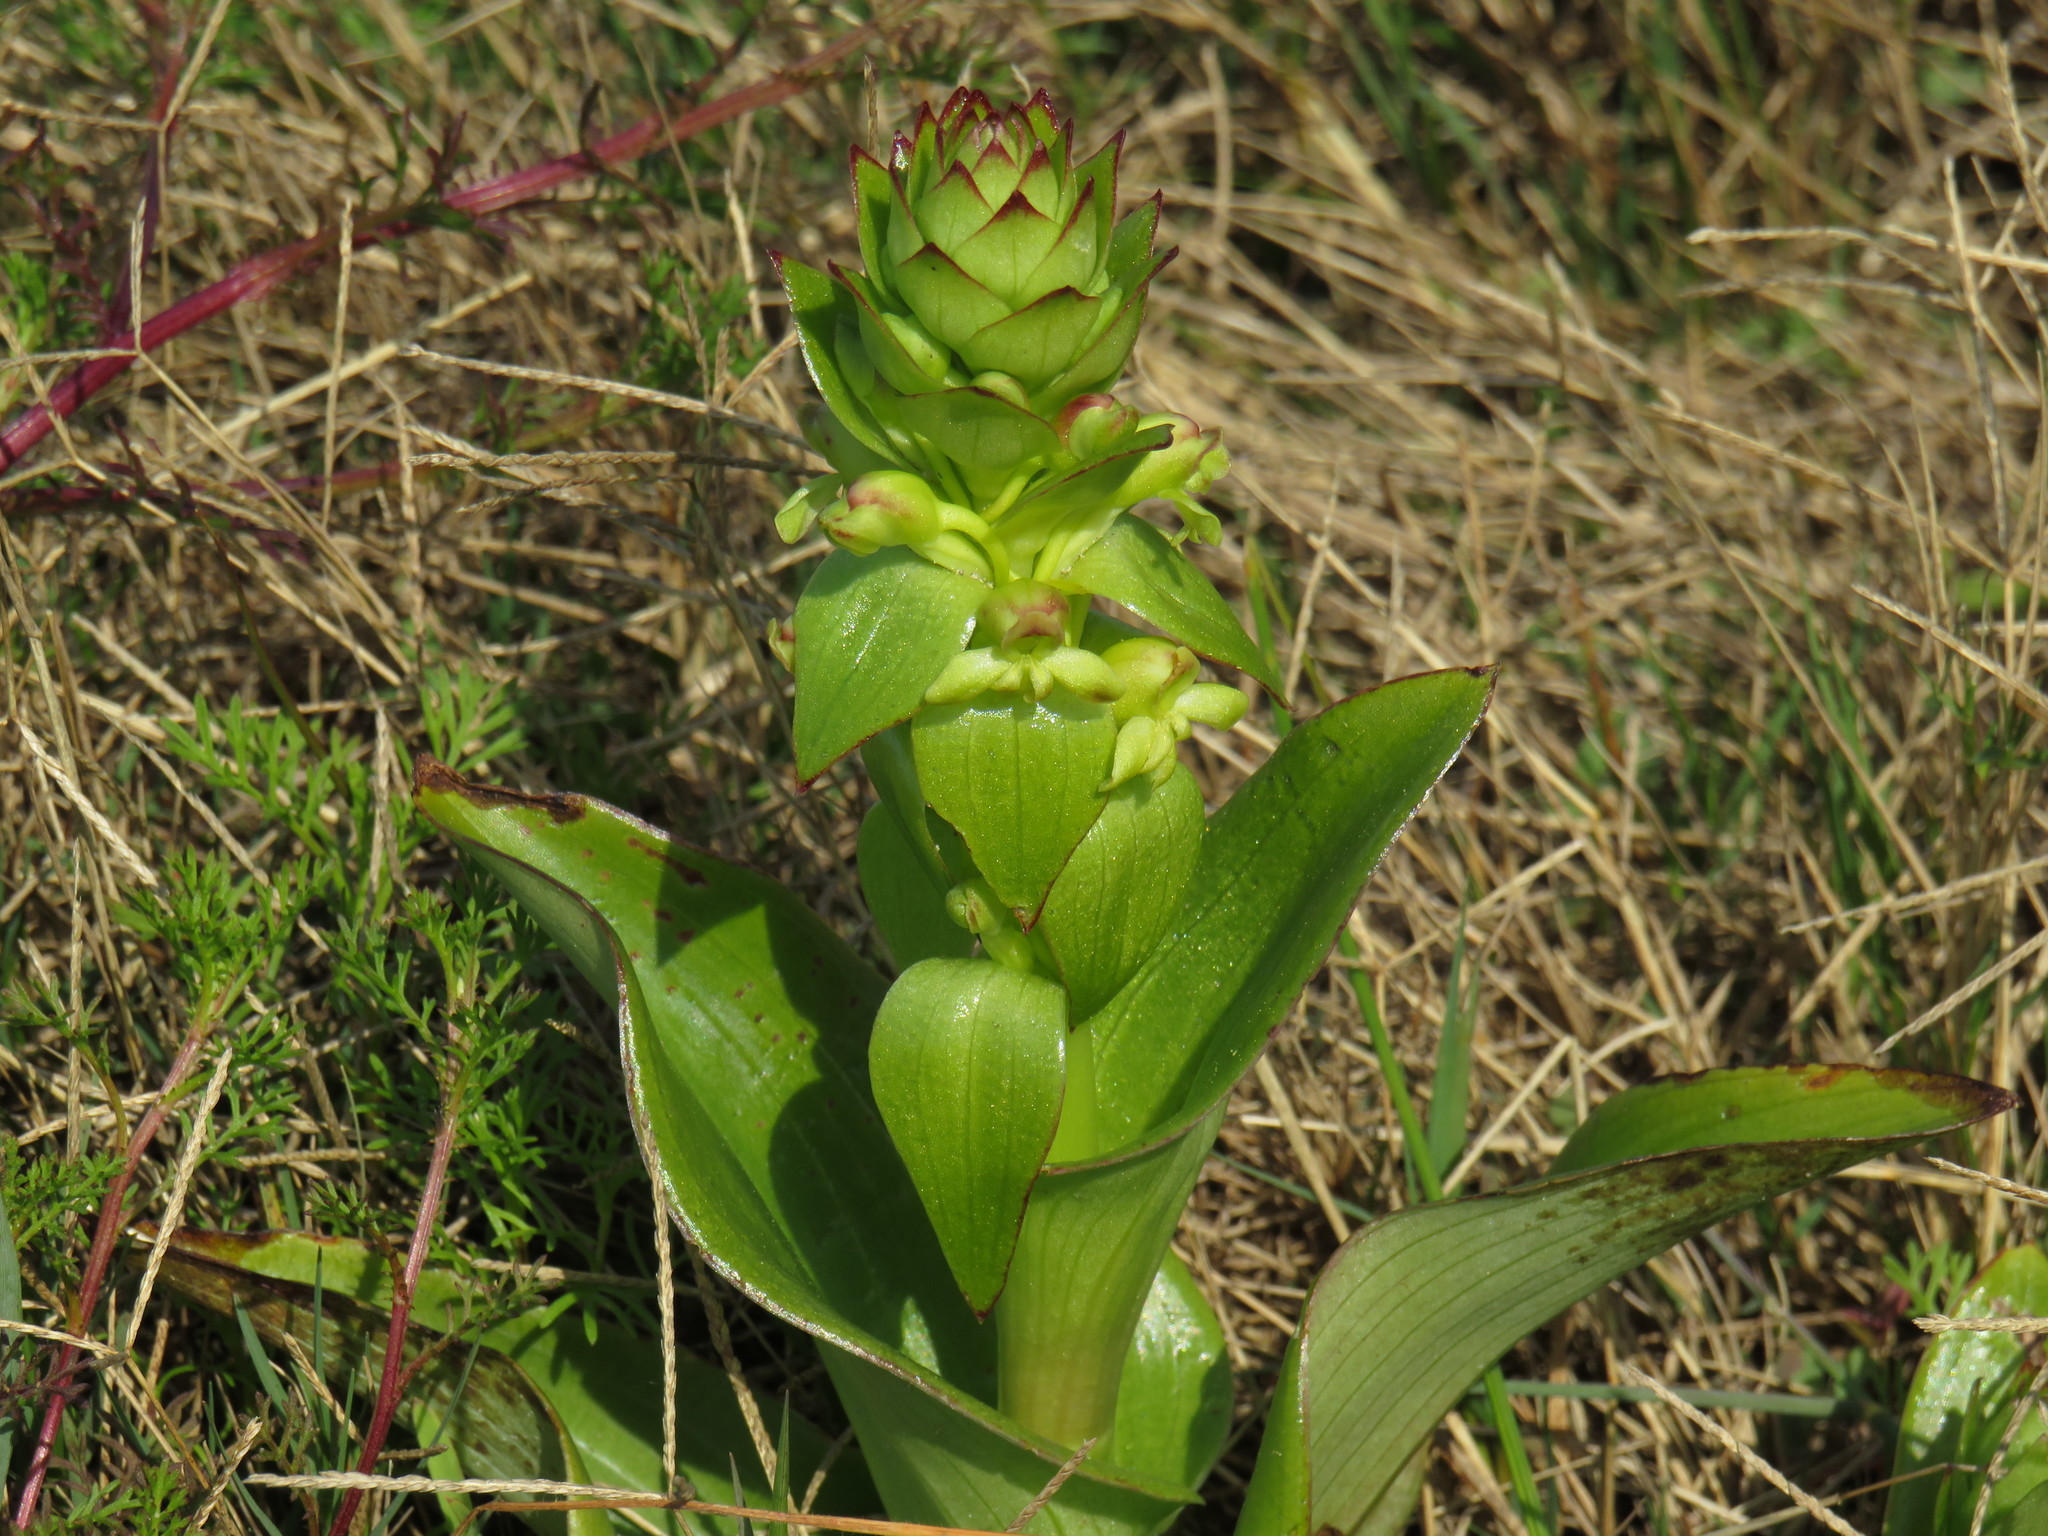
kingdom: Plantae
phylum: Tracheophyta
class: Liliopsida
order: Asparagales
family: Orchidaceae
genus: Satyrium
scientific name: Satyrium odorum
